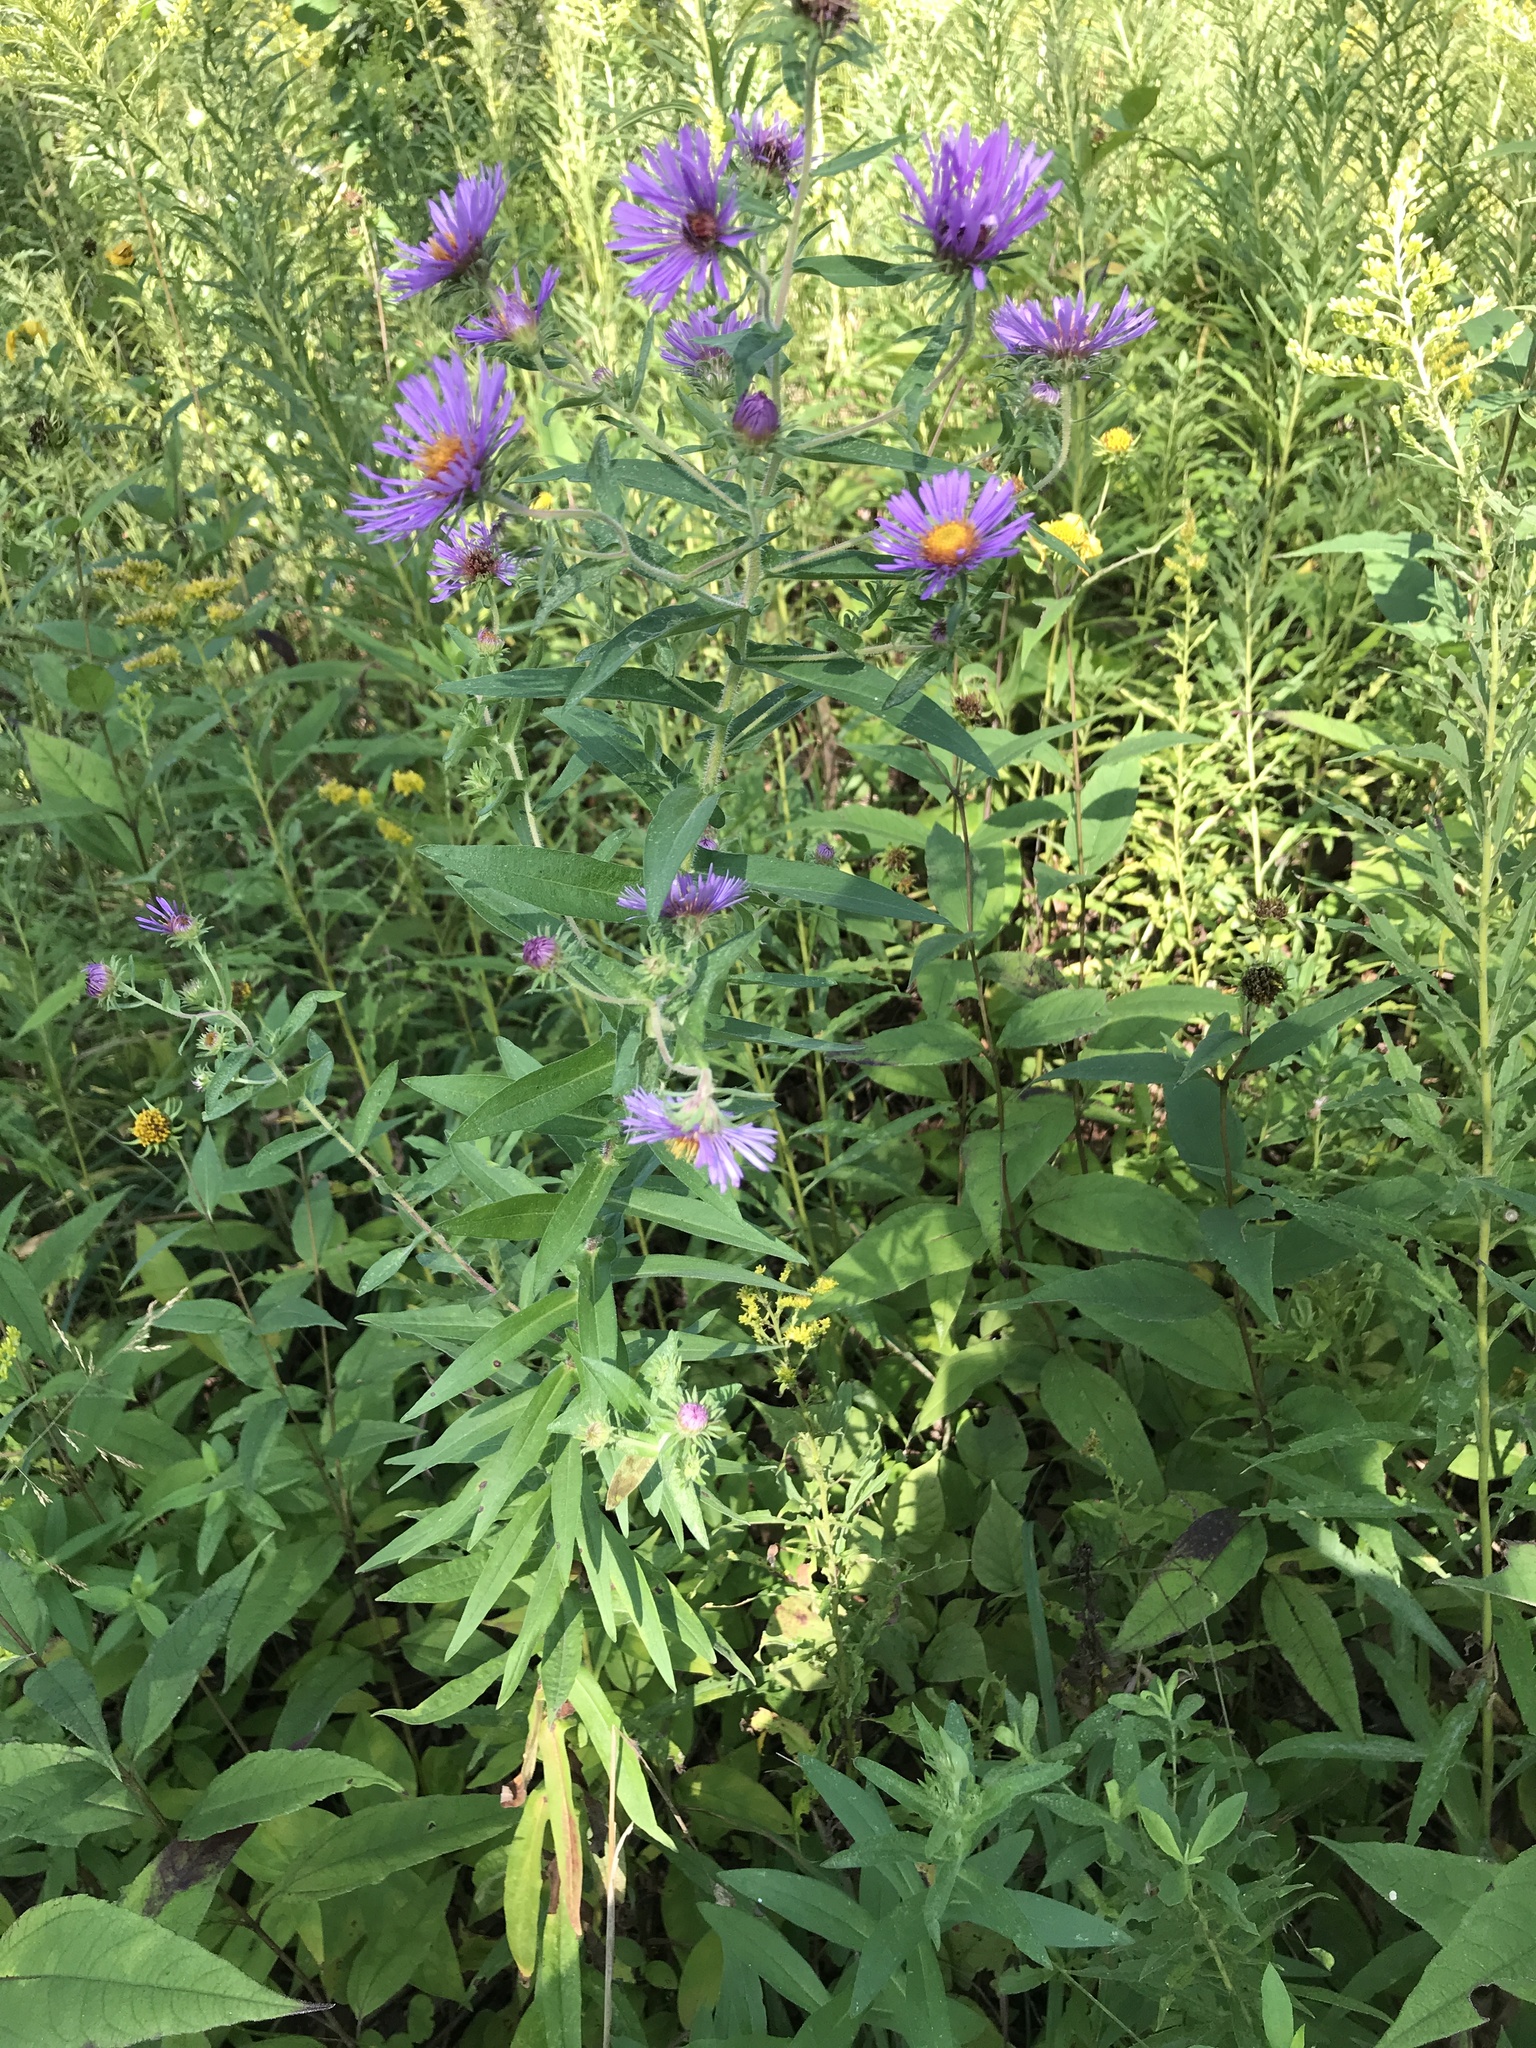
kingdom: Plantae
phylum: Tracheophyta
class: Magnoliopsida
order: Asterales
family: Asteraceae
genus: Symphyotrichum
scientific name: Symphyotrichum novae-angliae
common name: Michaelmas daisy
